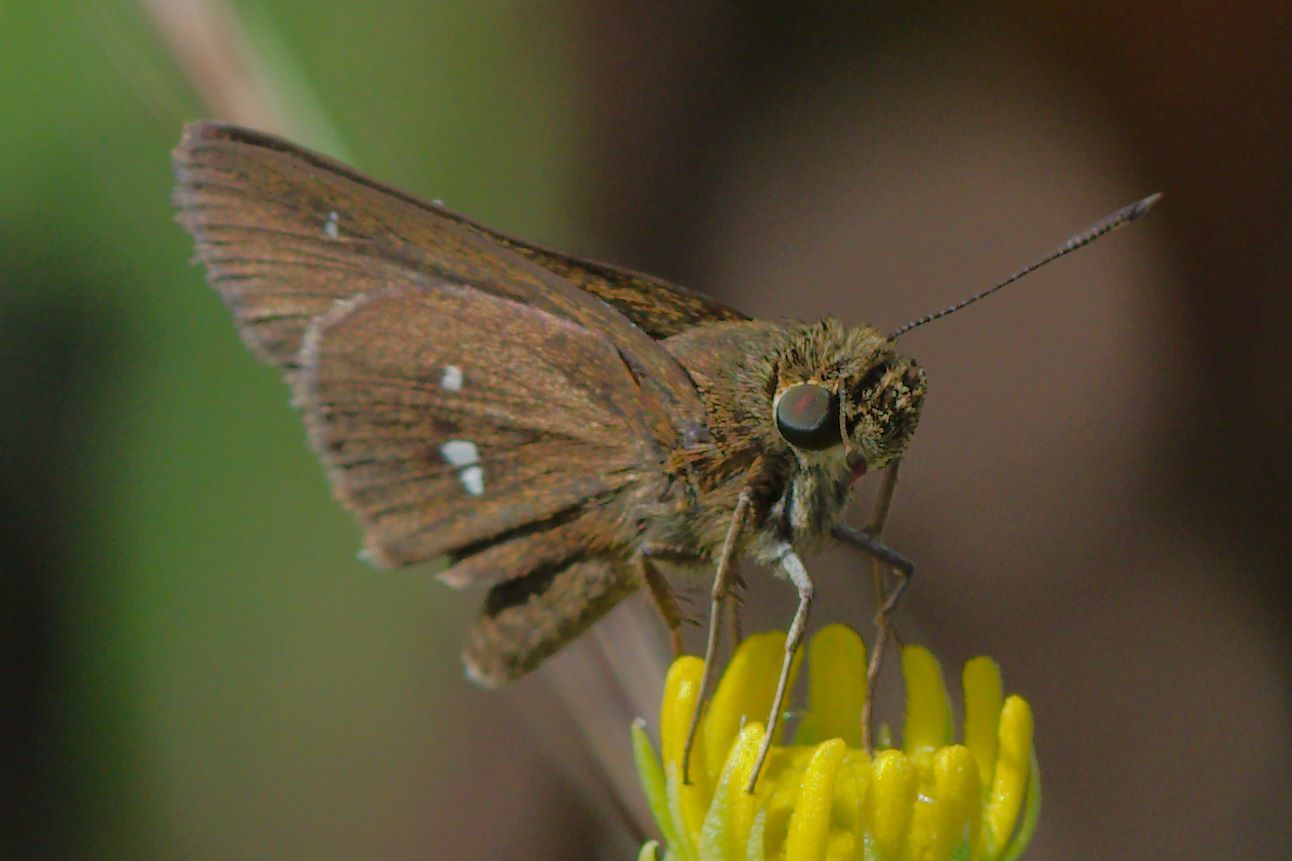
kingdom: Animalia
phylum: Arthropoda
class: Insecta
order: Lepidoptera
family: Hesperiidae
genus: Oligoria
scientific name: Oligoria maculata
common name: Twin-spot skipper
